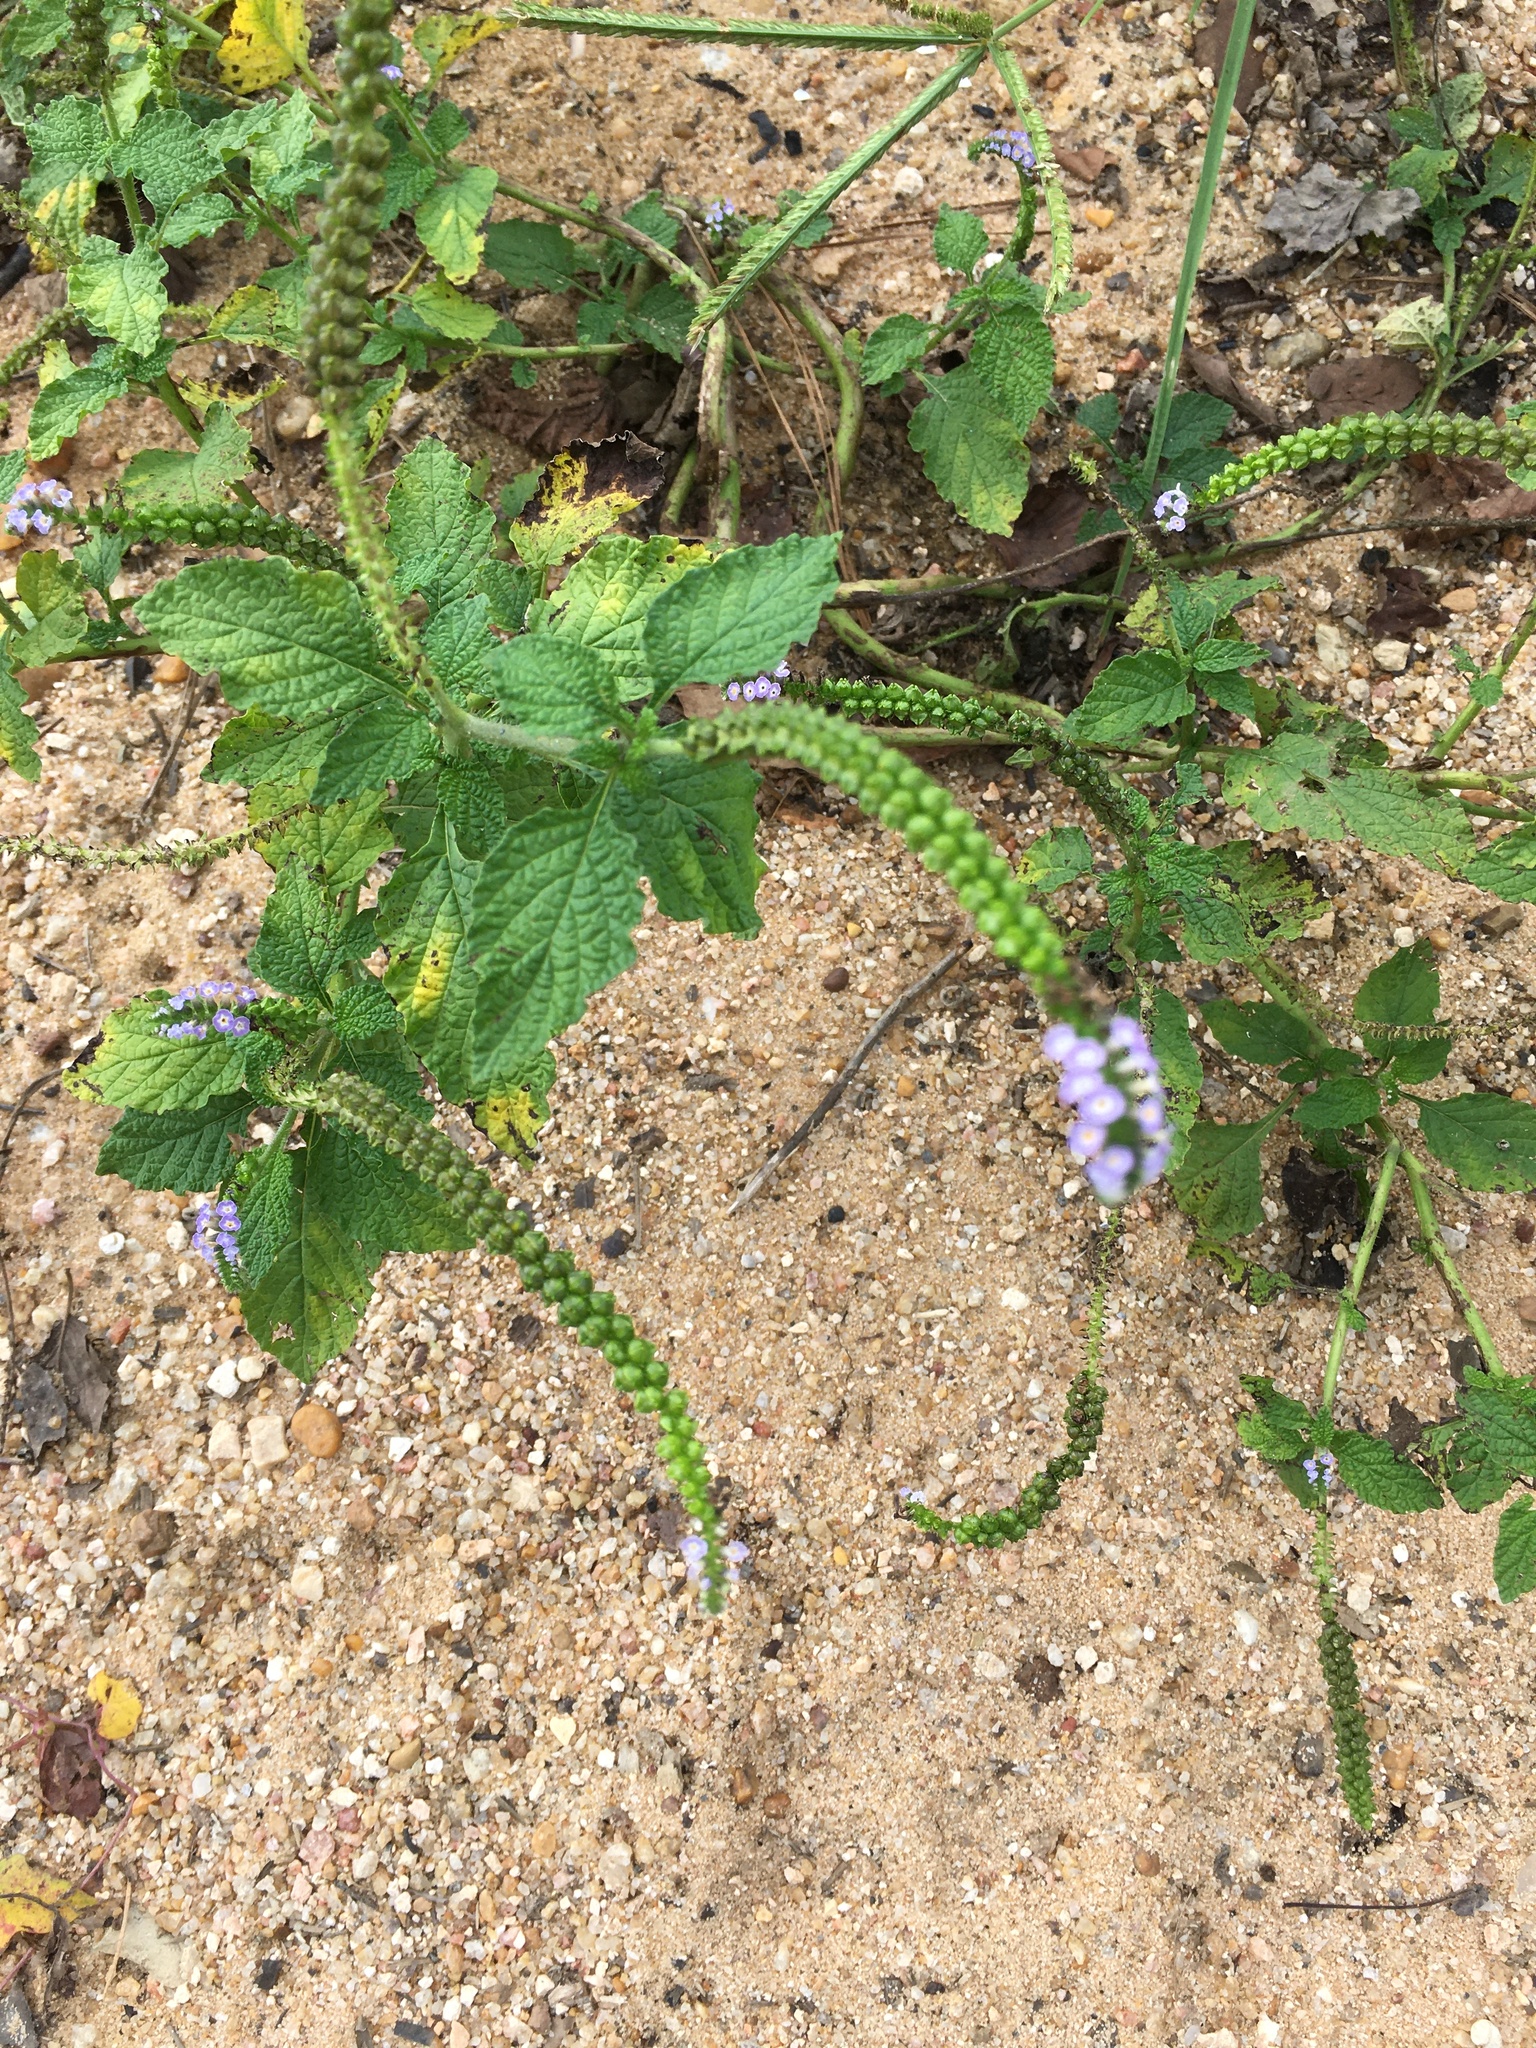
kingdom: Plantae
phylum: Tracheophyta
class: Magnoliopsida
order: Boraginales
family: Heliotropiaceae
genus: Heliotropium
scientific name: Heliotropium indicum
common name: Indian heliotrope
